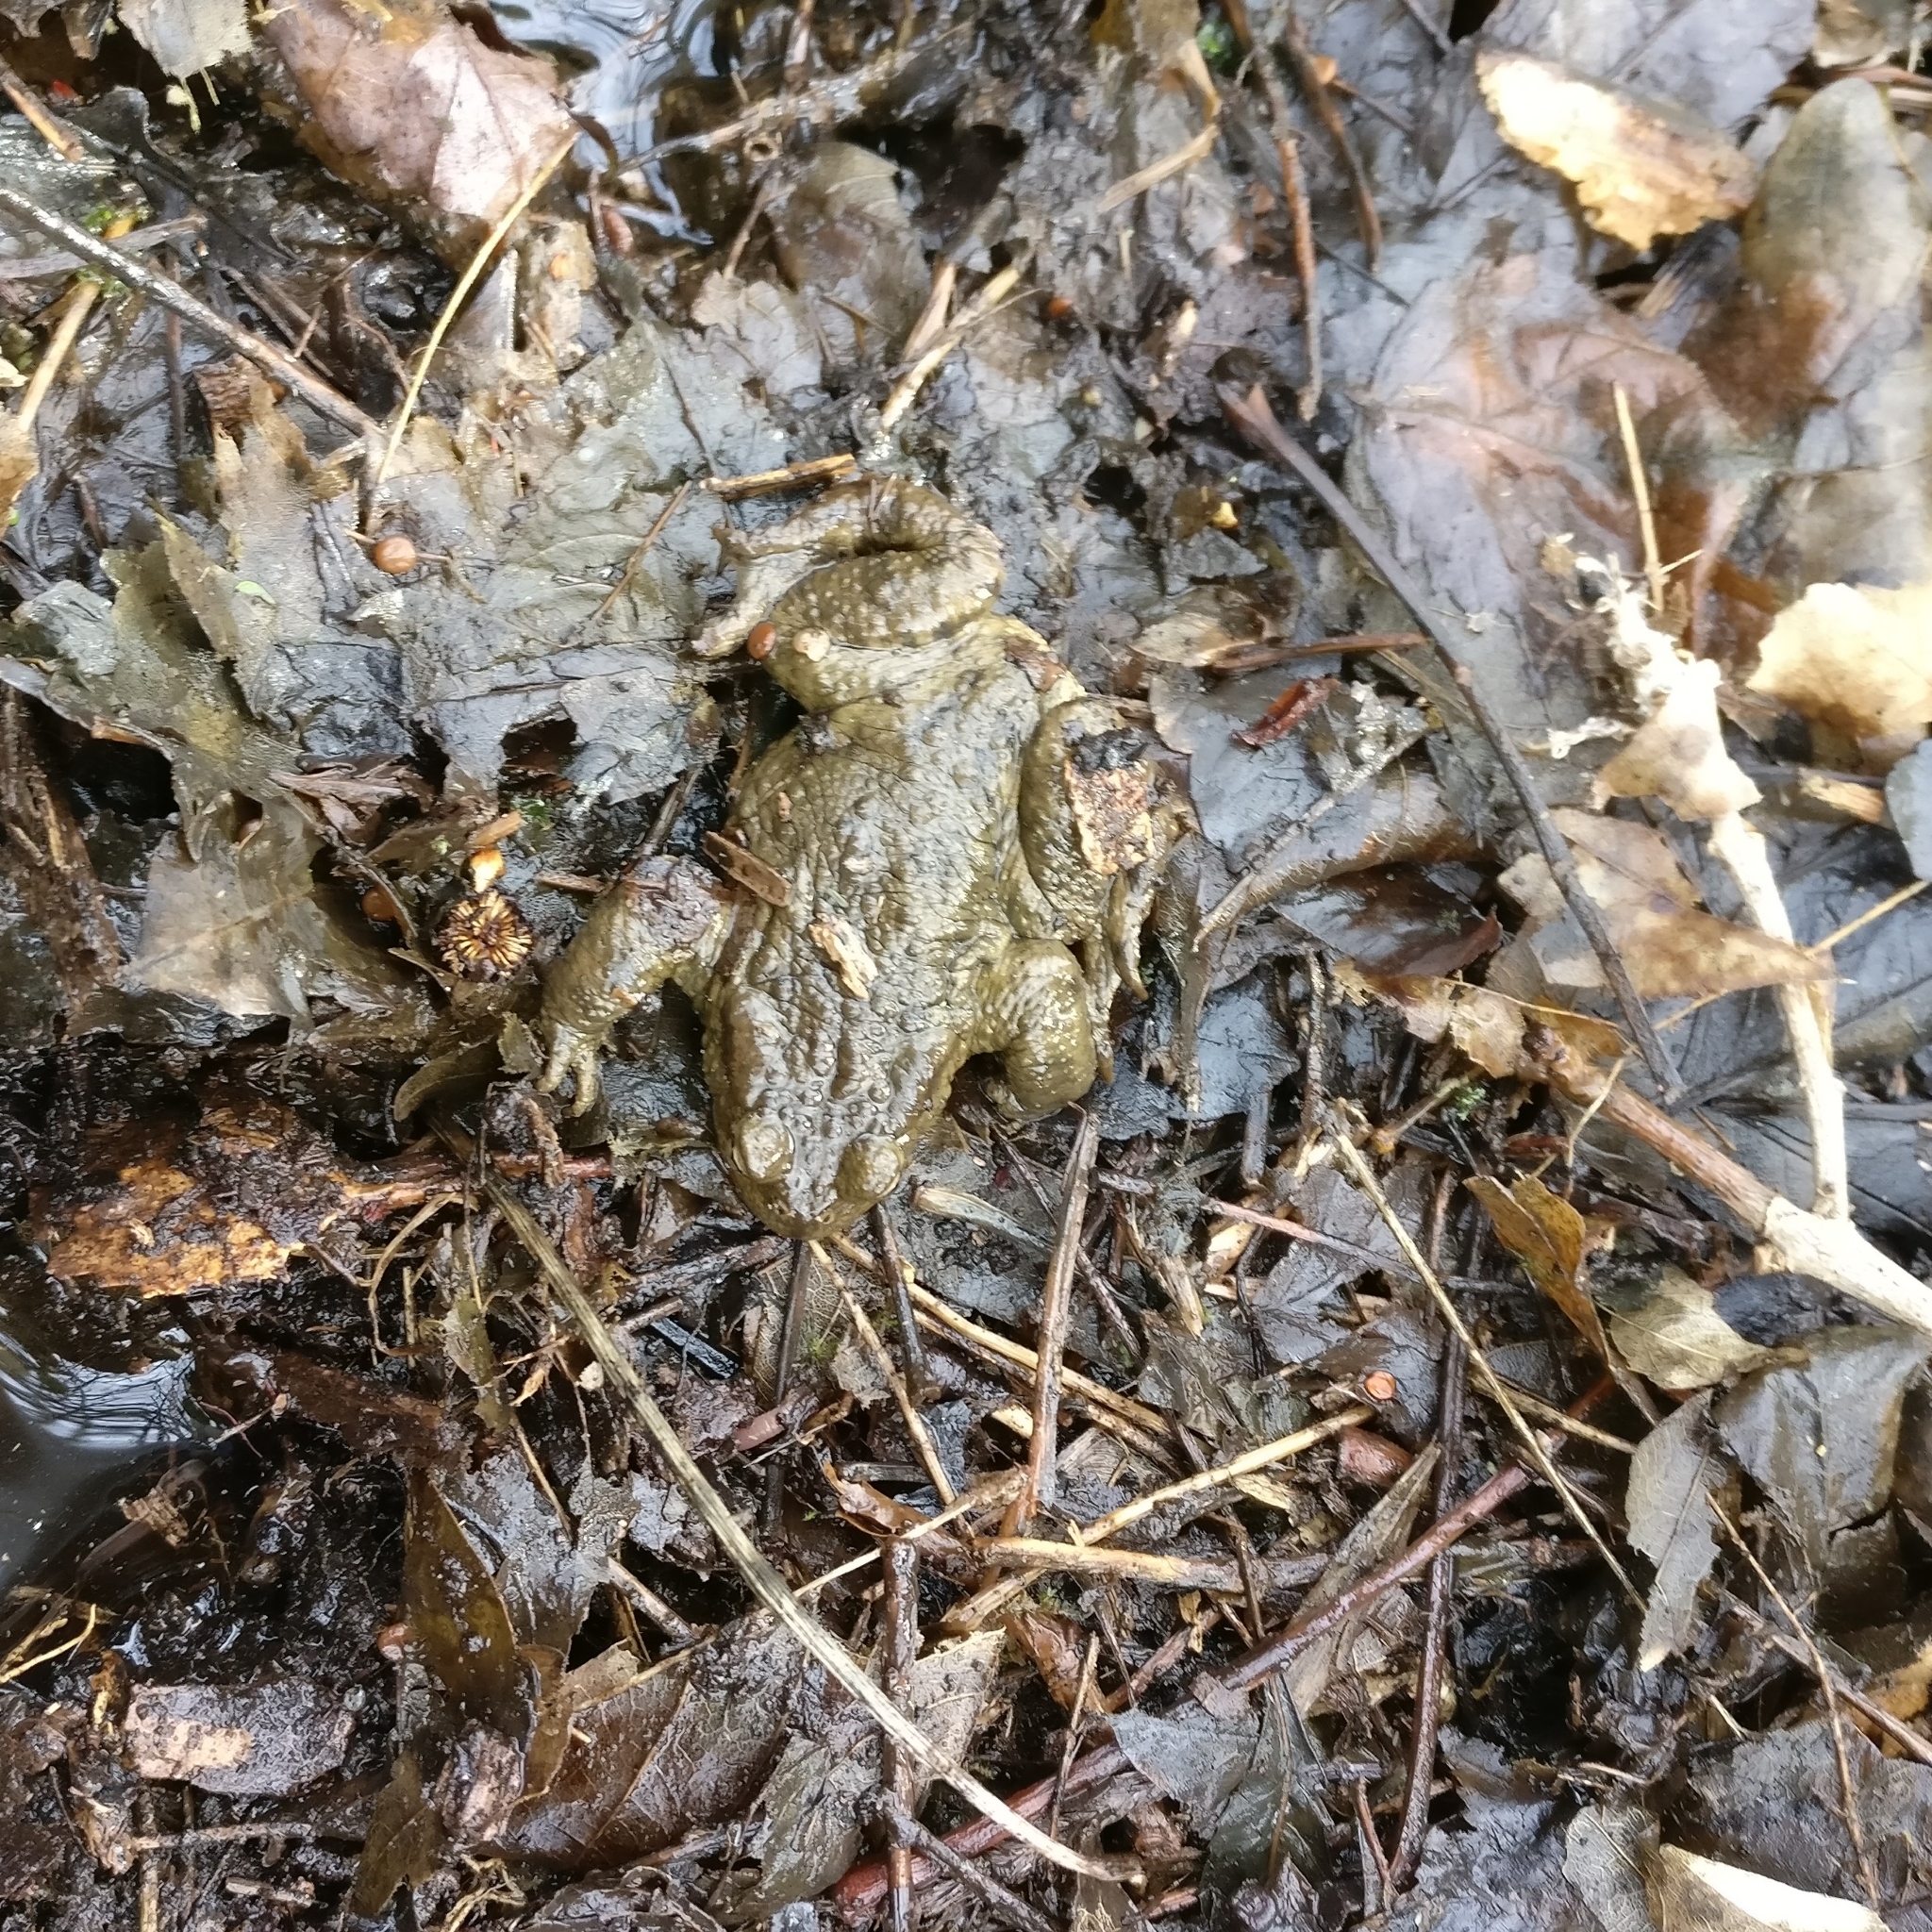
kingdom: Animalia
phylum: Chordata
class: Amphibia
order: Anura
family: Bufonidae
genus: Bufo
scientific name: Bufo bufo
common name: Common toad
